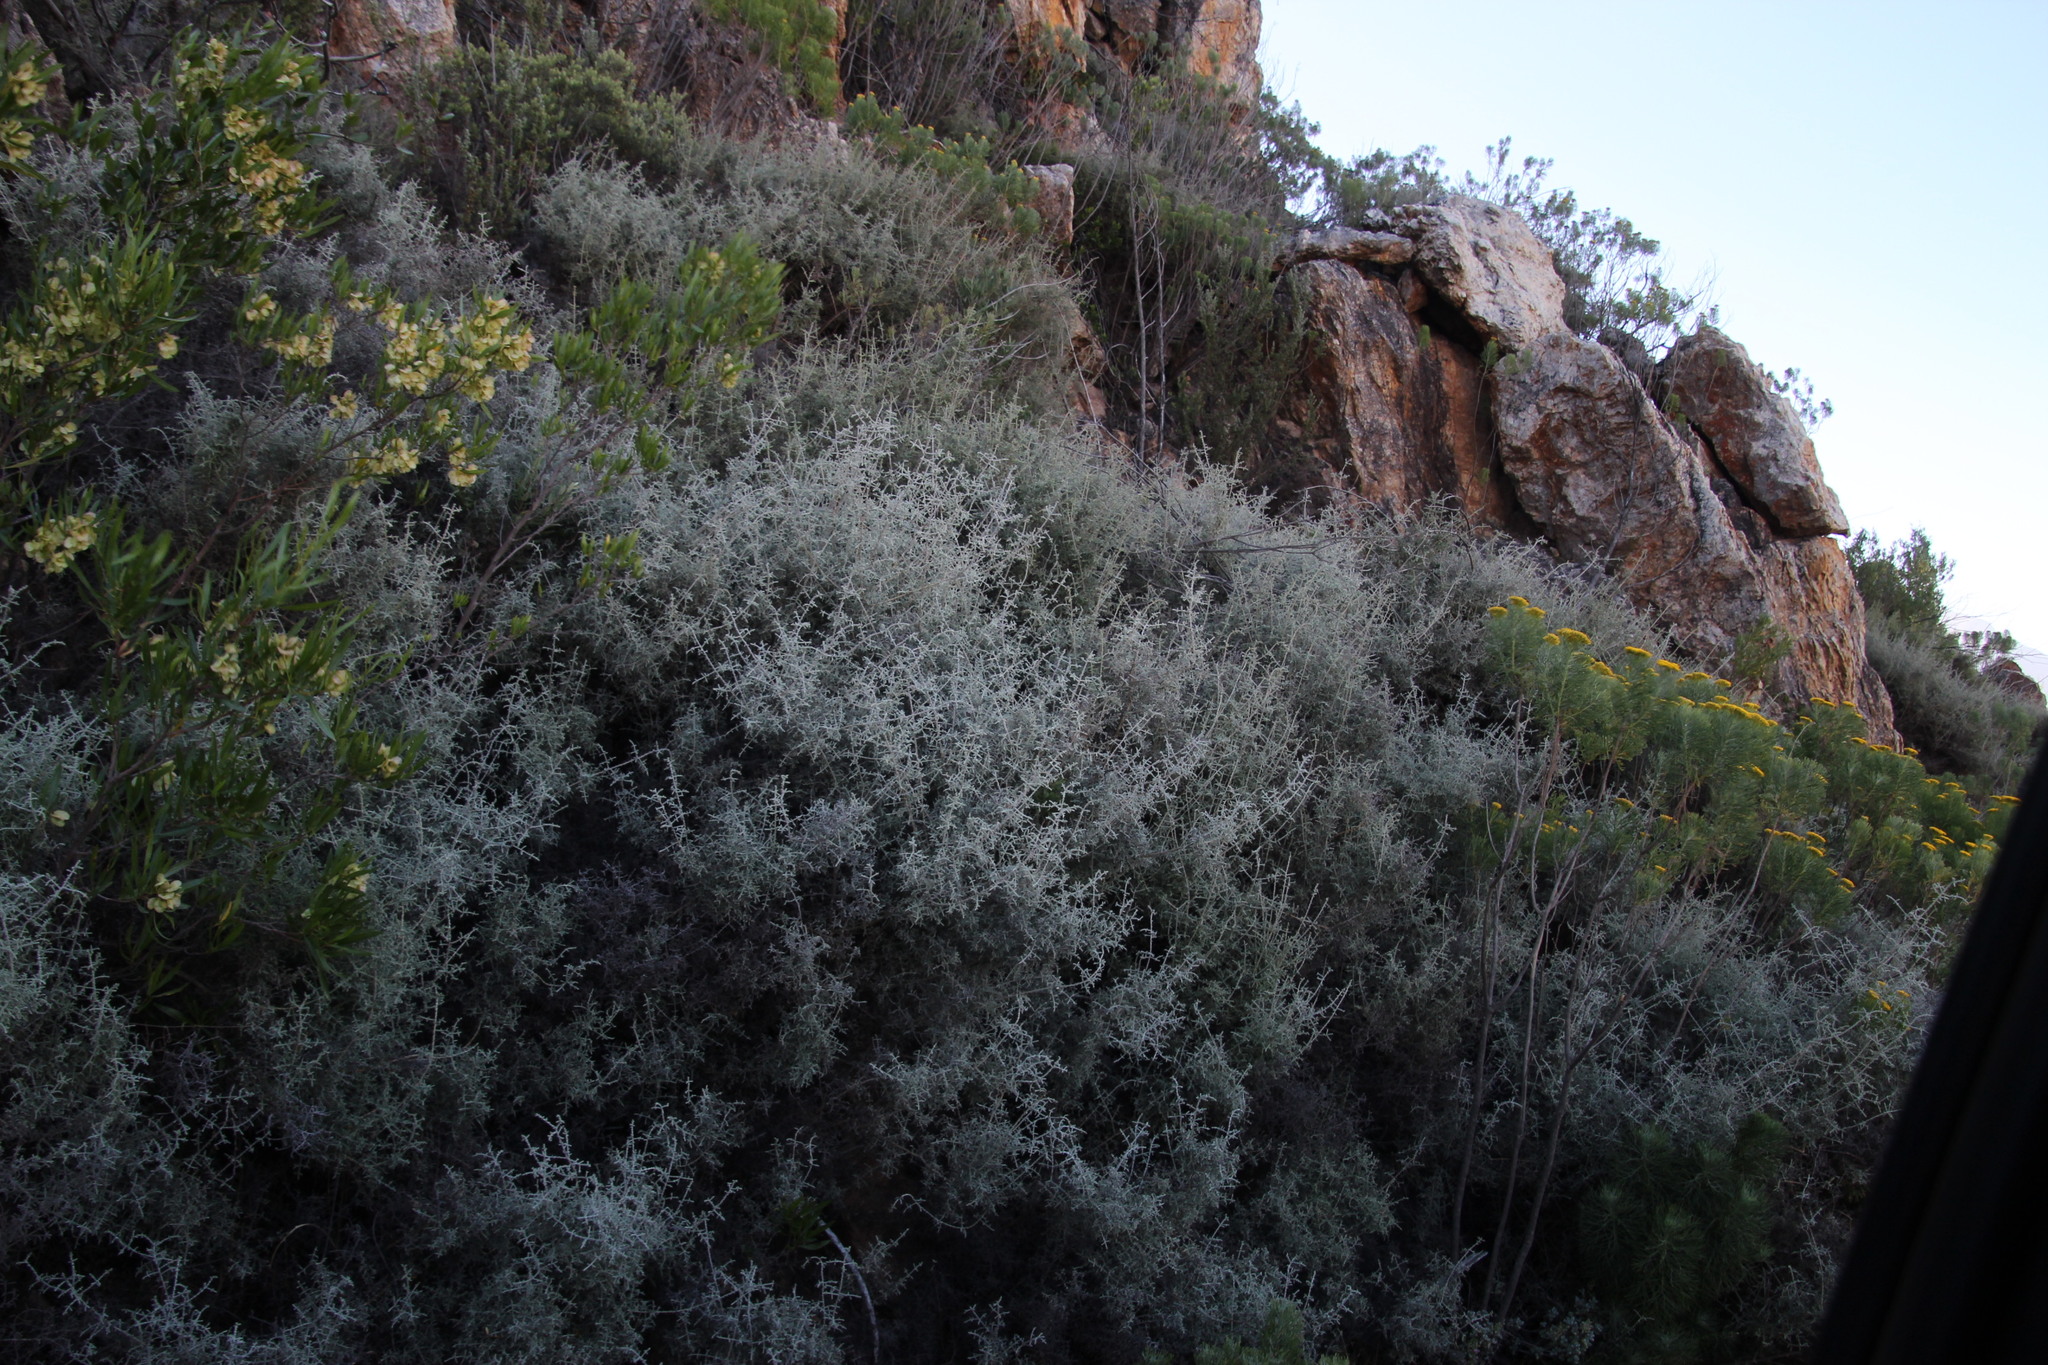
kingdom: Plantae
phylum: Tracheophyta
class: Magnoliopsida
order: Asterales
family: Asteraceae
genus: Seriphium
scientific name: Seriphium plumosum
